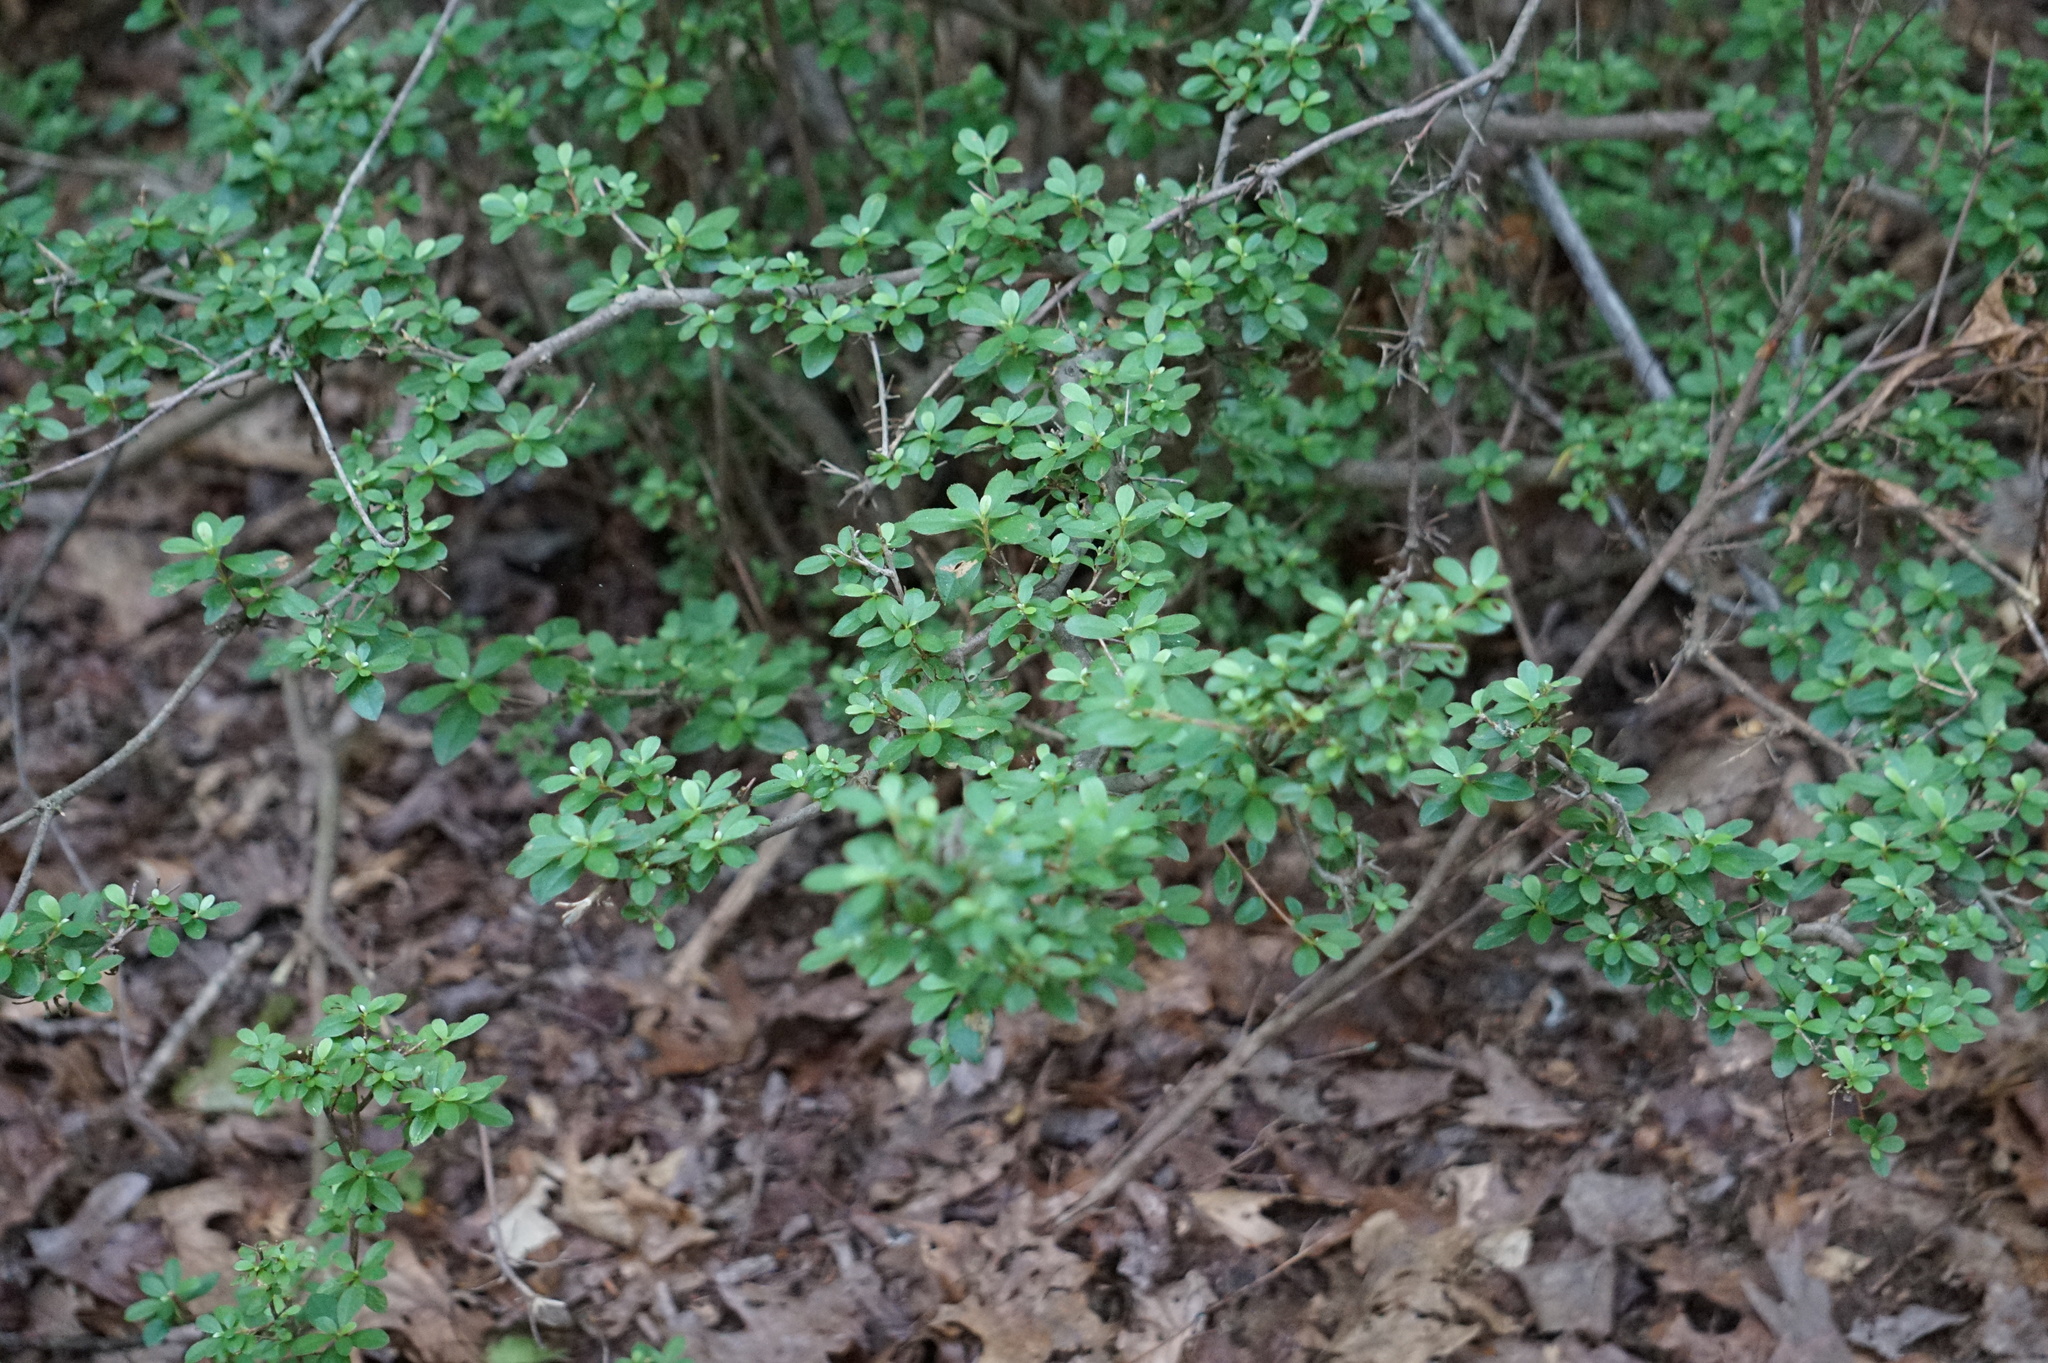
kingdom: Plantae
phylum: Tracheophyta
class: Magnoliopsida
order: Ranunculales
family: Berberidaceae
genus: Berberis
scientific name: Berberis thunbergii
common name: Japanese barberry
